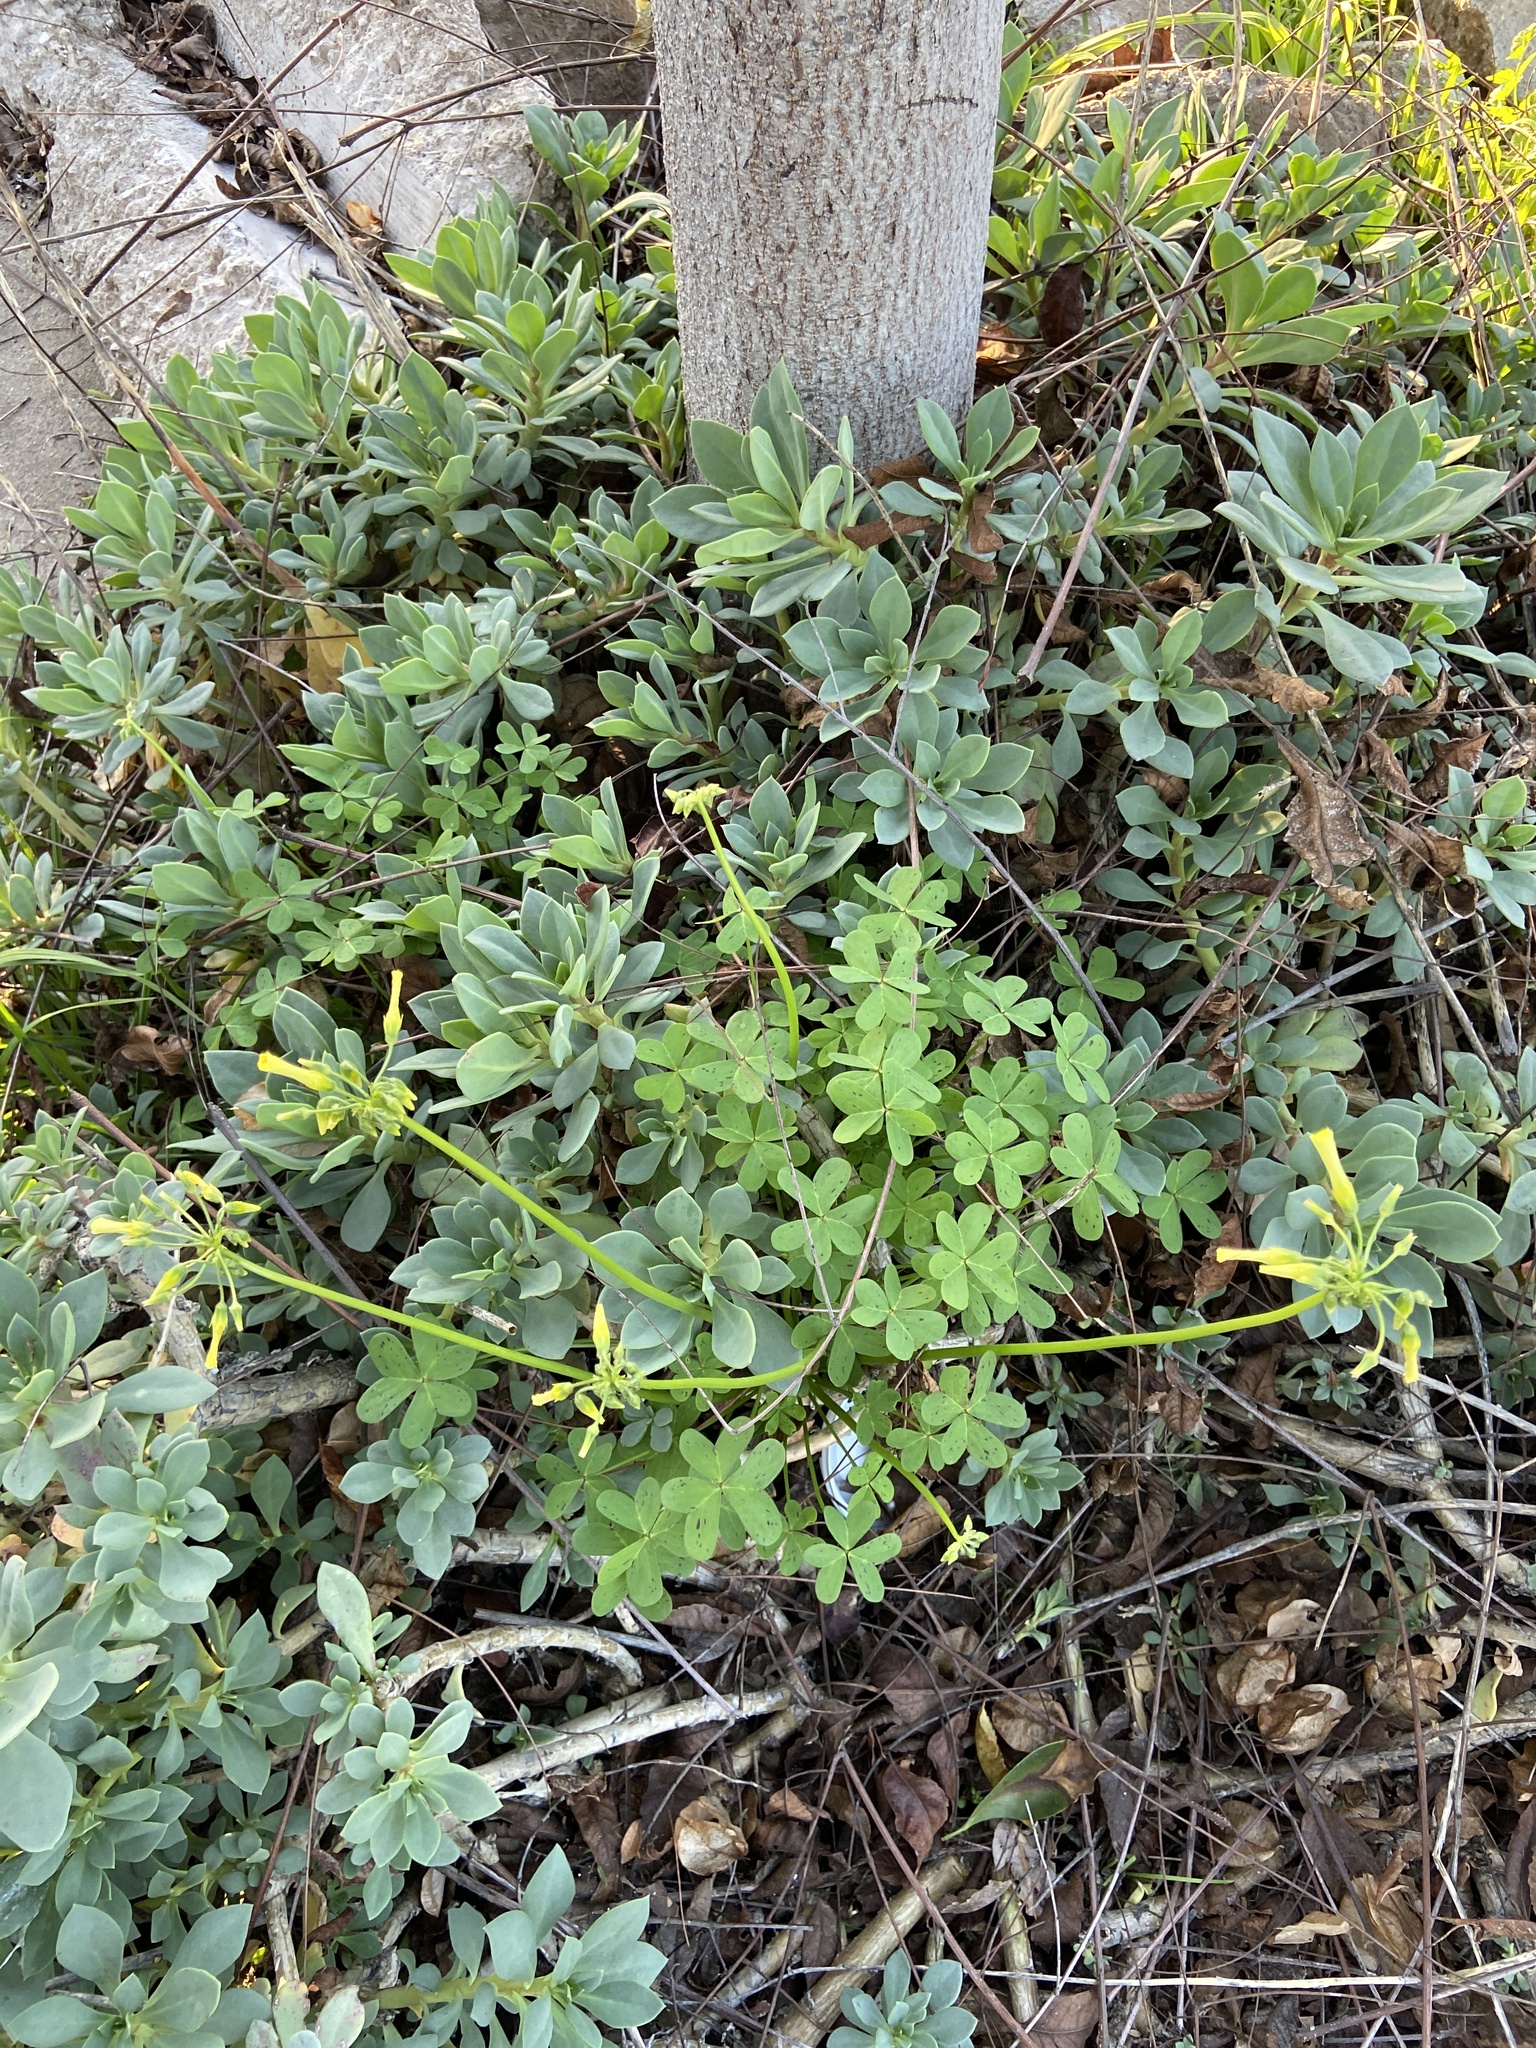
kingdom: Plantae
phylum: Tracheophyta
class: Magnoliopsida
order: Oxalidales
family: Oxalidaceae
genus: Oxalis
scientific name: Oxalis pes-caprae
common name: Bermuda-buttercup
